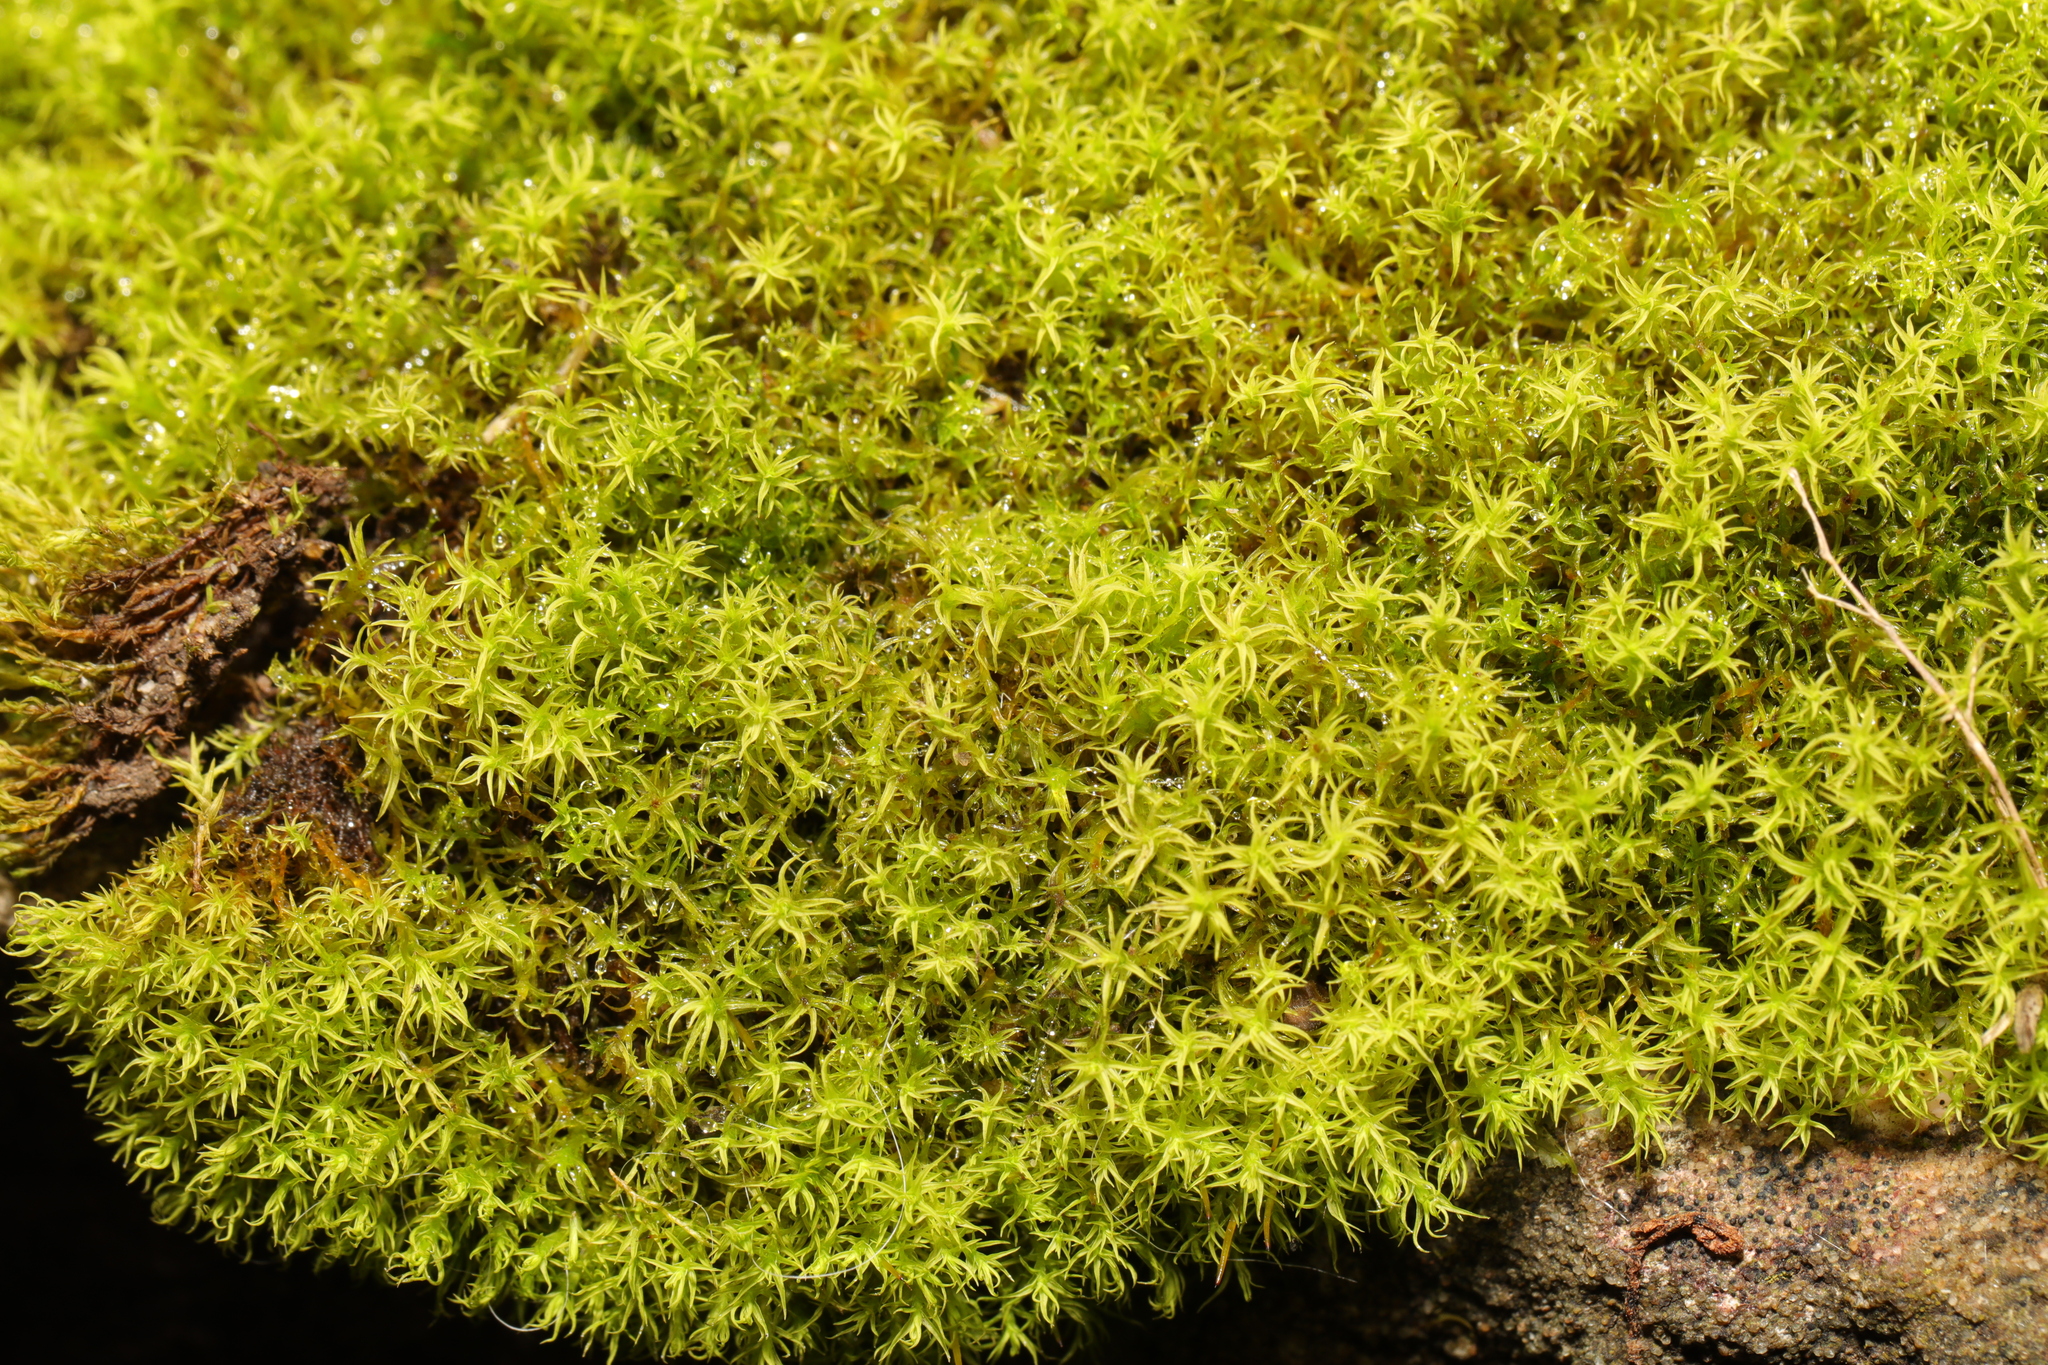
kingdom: Plantae
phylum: Bryophyta
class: Bryopsida
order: Pottiales
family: Pottiaceae
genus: Vinealobryum
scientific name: Vinealobryum insulanum
